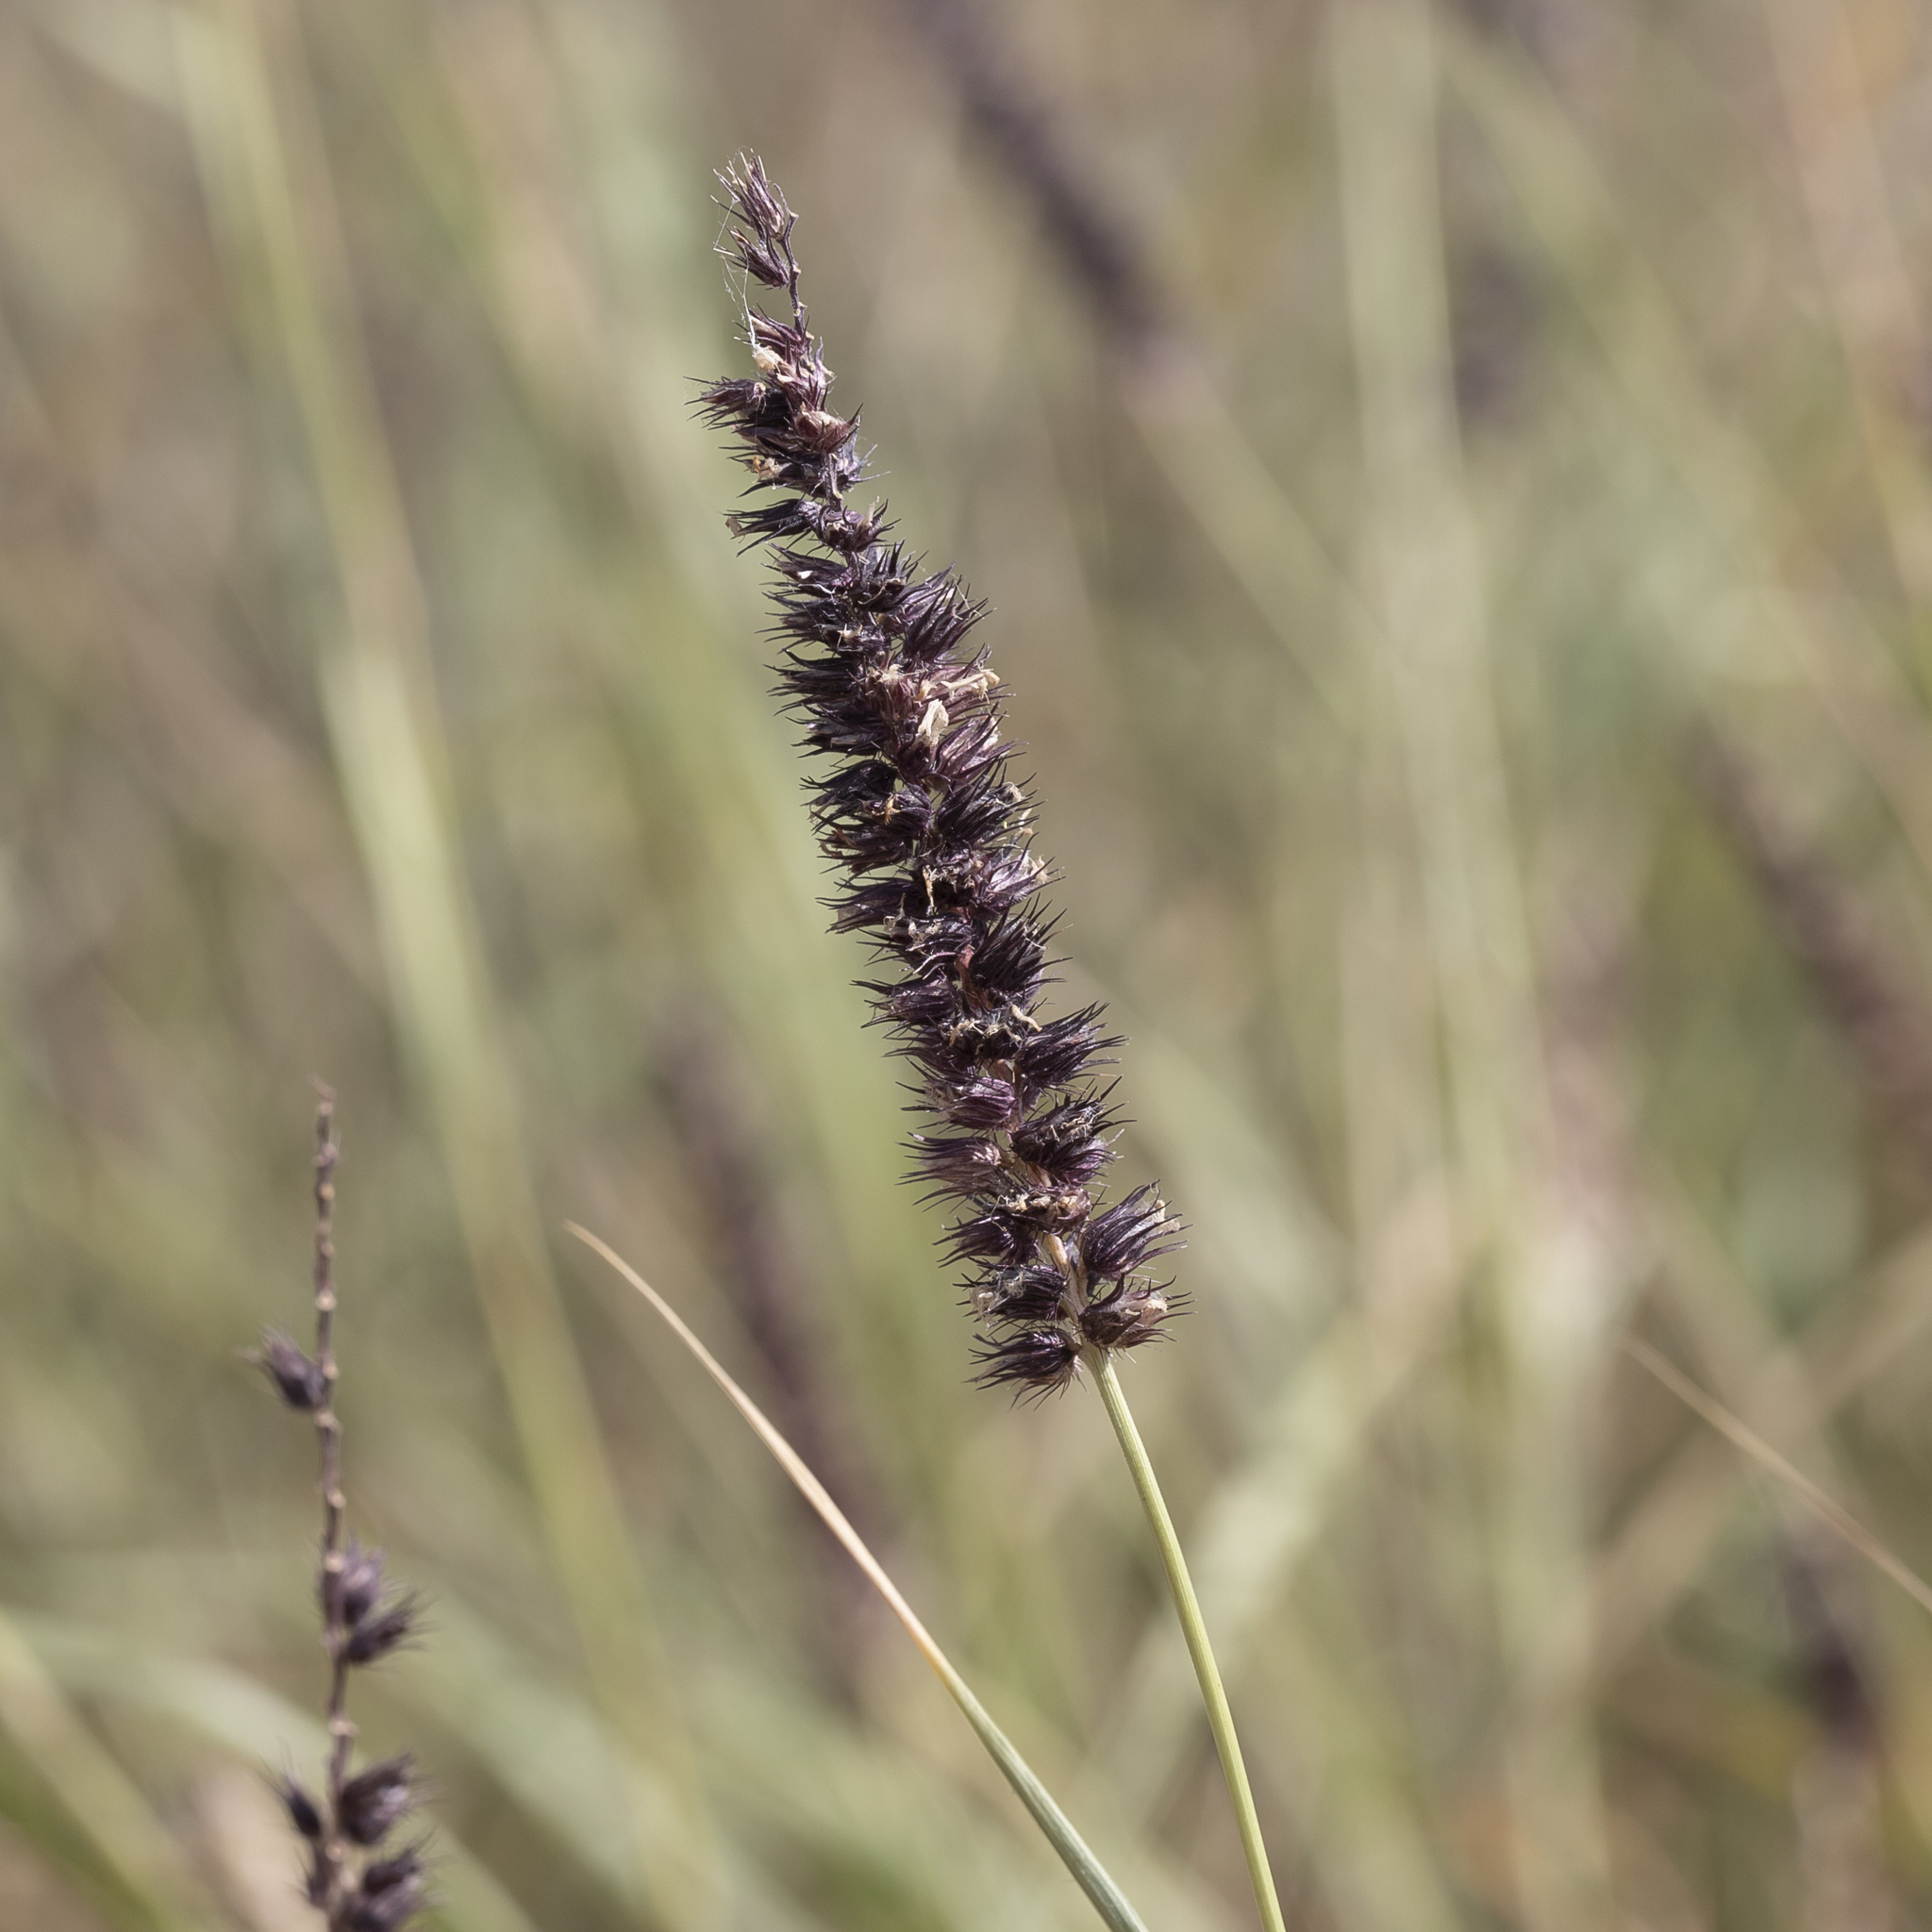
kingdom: Plantae
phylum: Tracheophyta
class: Liliopsida
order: Poales
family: Poaceae
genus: Cenchrus
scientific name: Cenchrus setigerus
